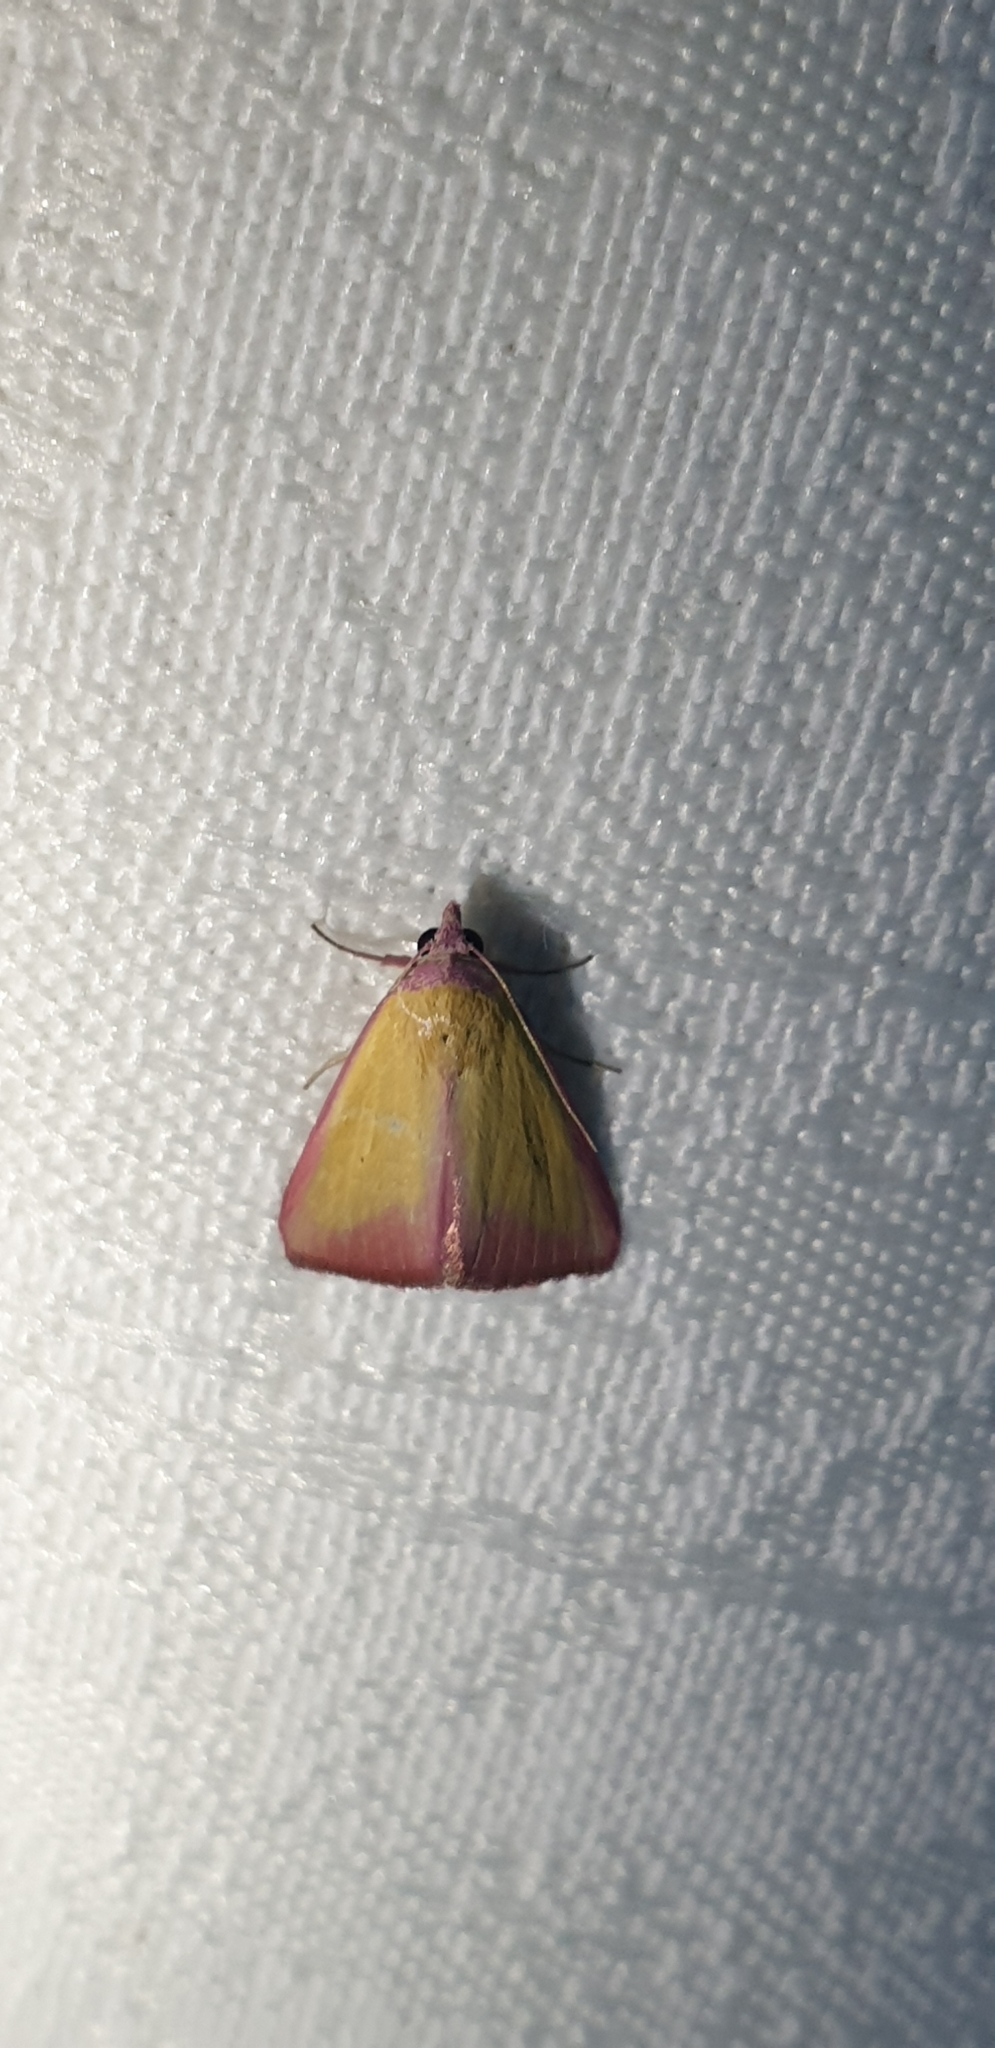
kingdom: Animalia
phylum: Arthropoda
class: Insecta
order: Lepidoptera
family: Erebidae
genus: Phytometra
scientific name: Phytometra formosalis
